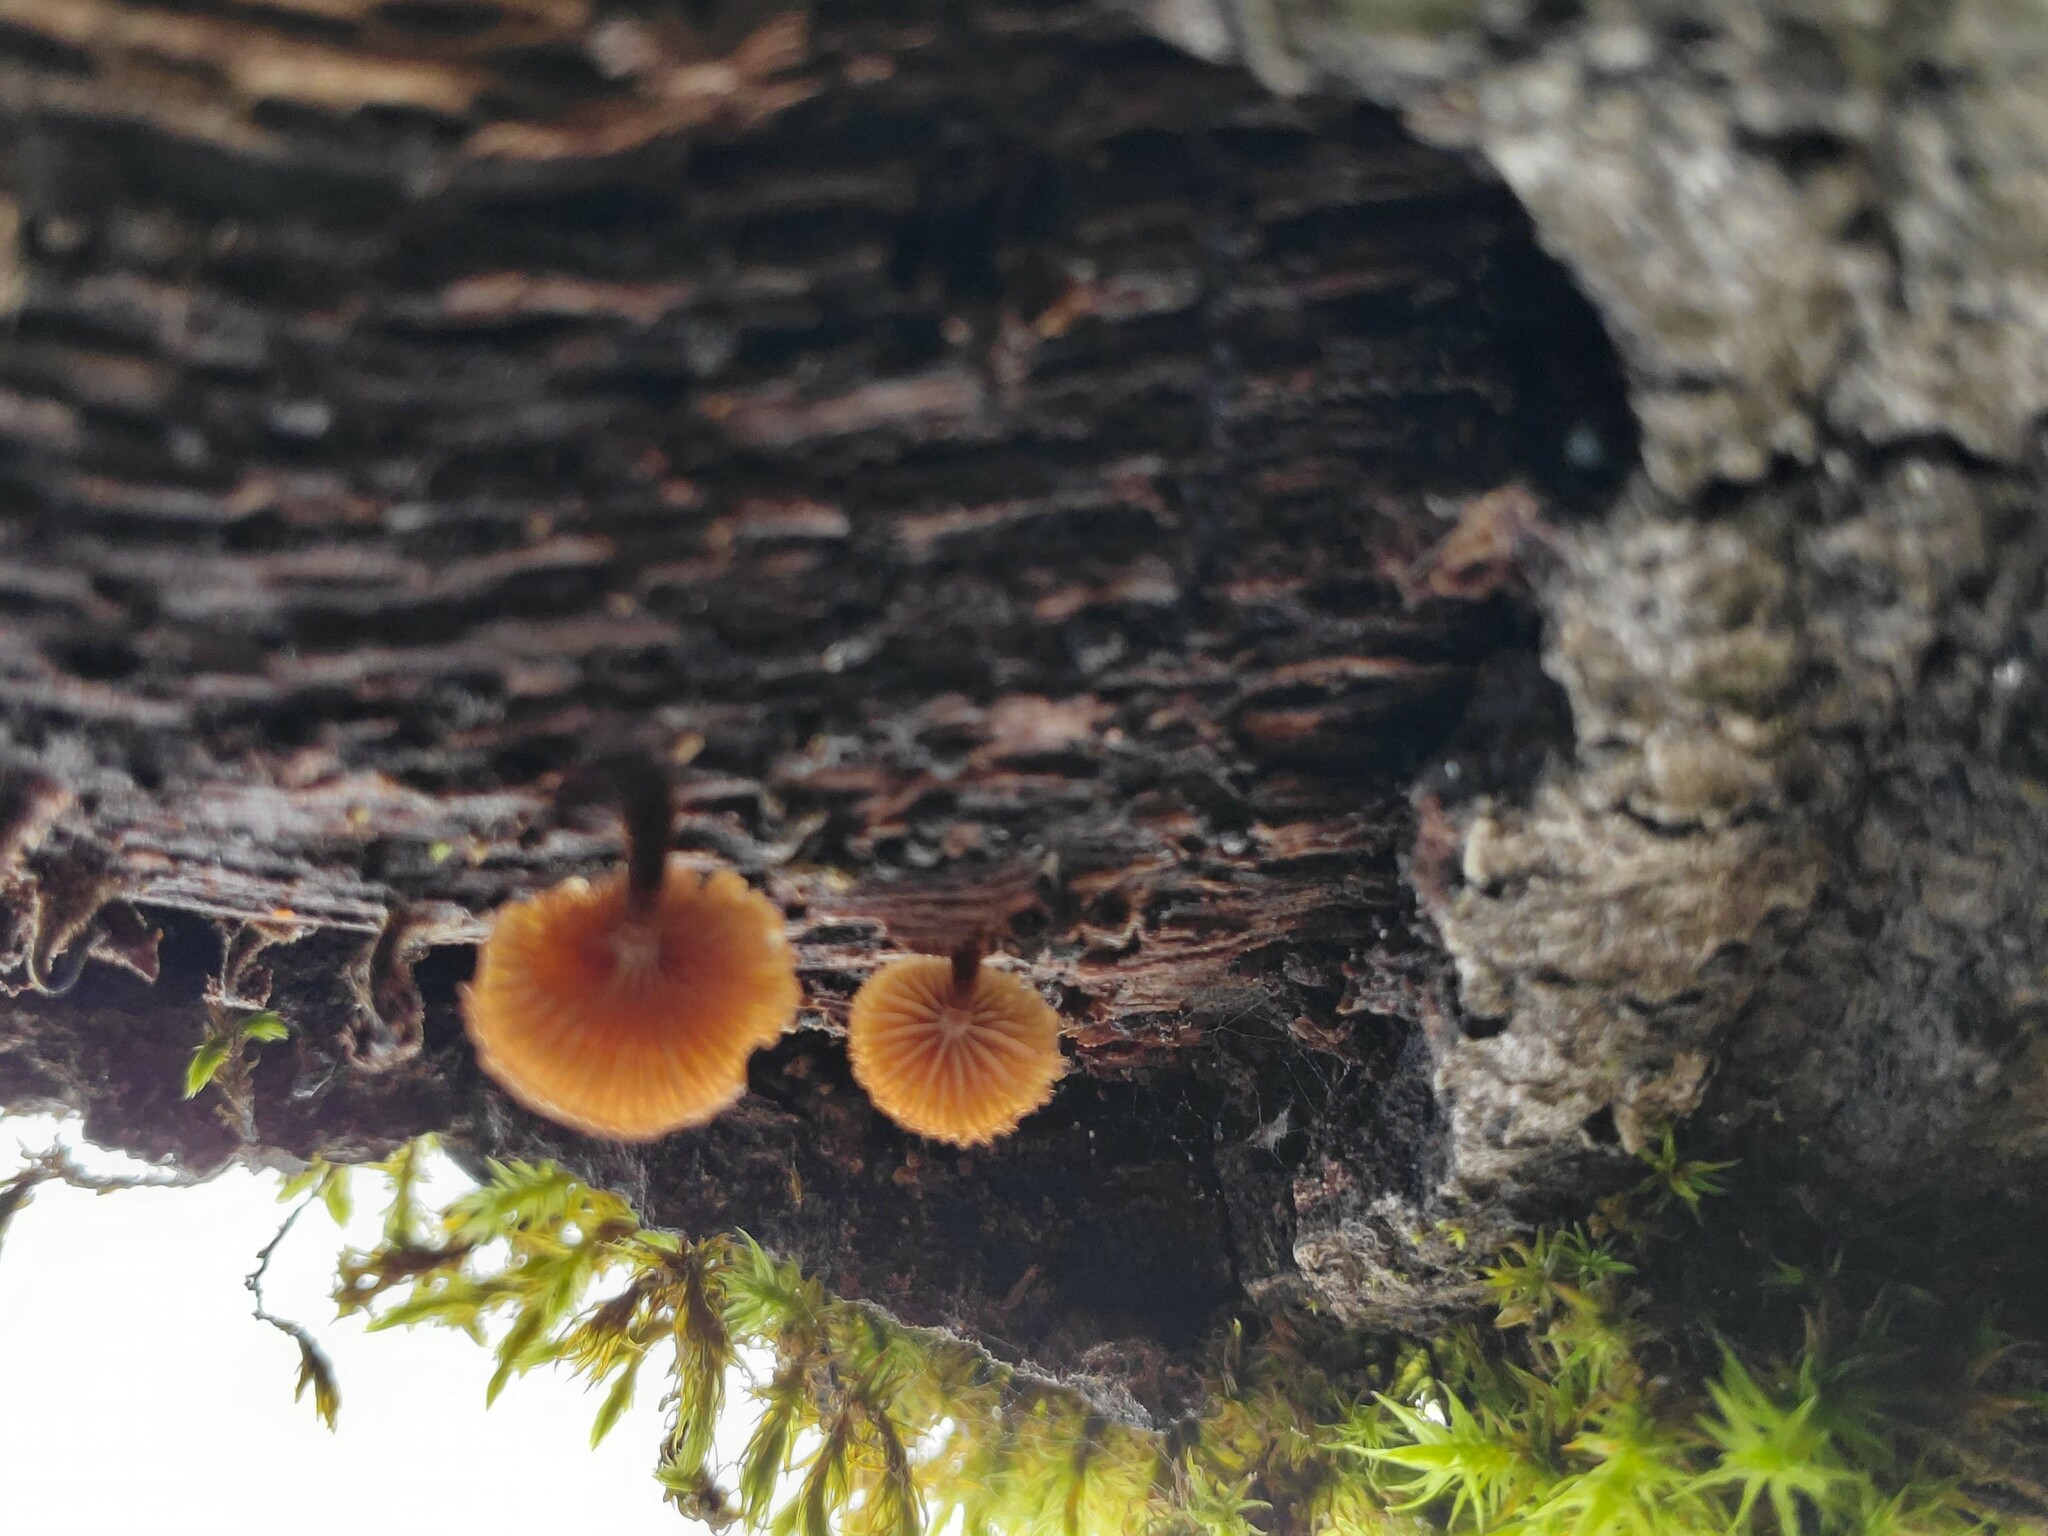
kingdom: Fungi
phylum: Basidiomycota
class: Agaricomycetes
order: Agaricales
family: Tubariaceae
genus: Phaeomarasmius
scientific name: Phaeomarasmius erinaceus
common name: Hedgehog scalycap
